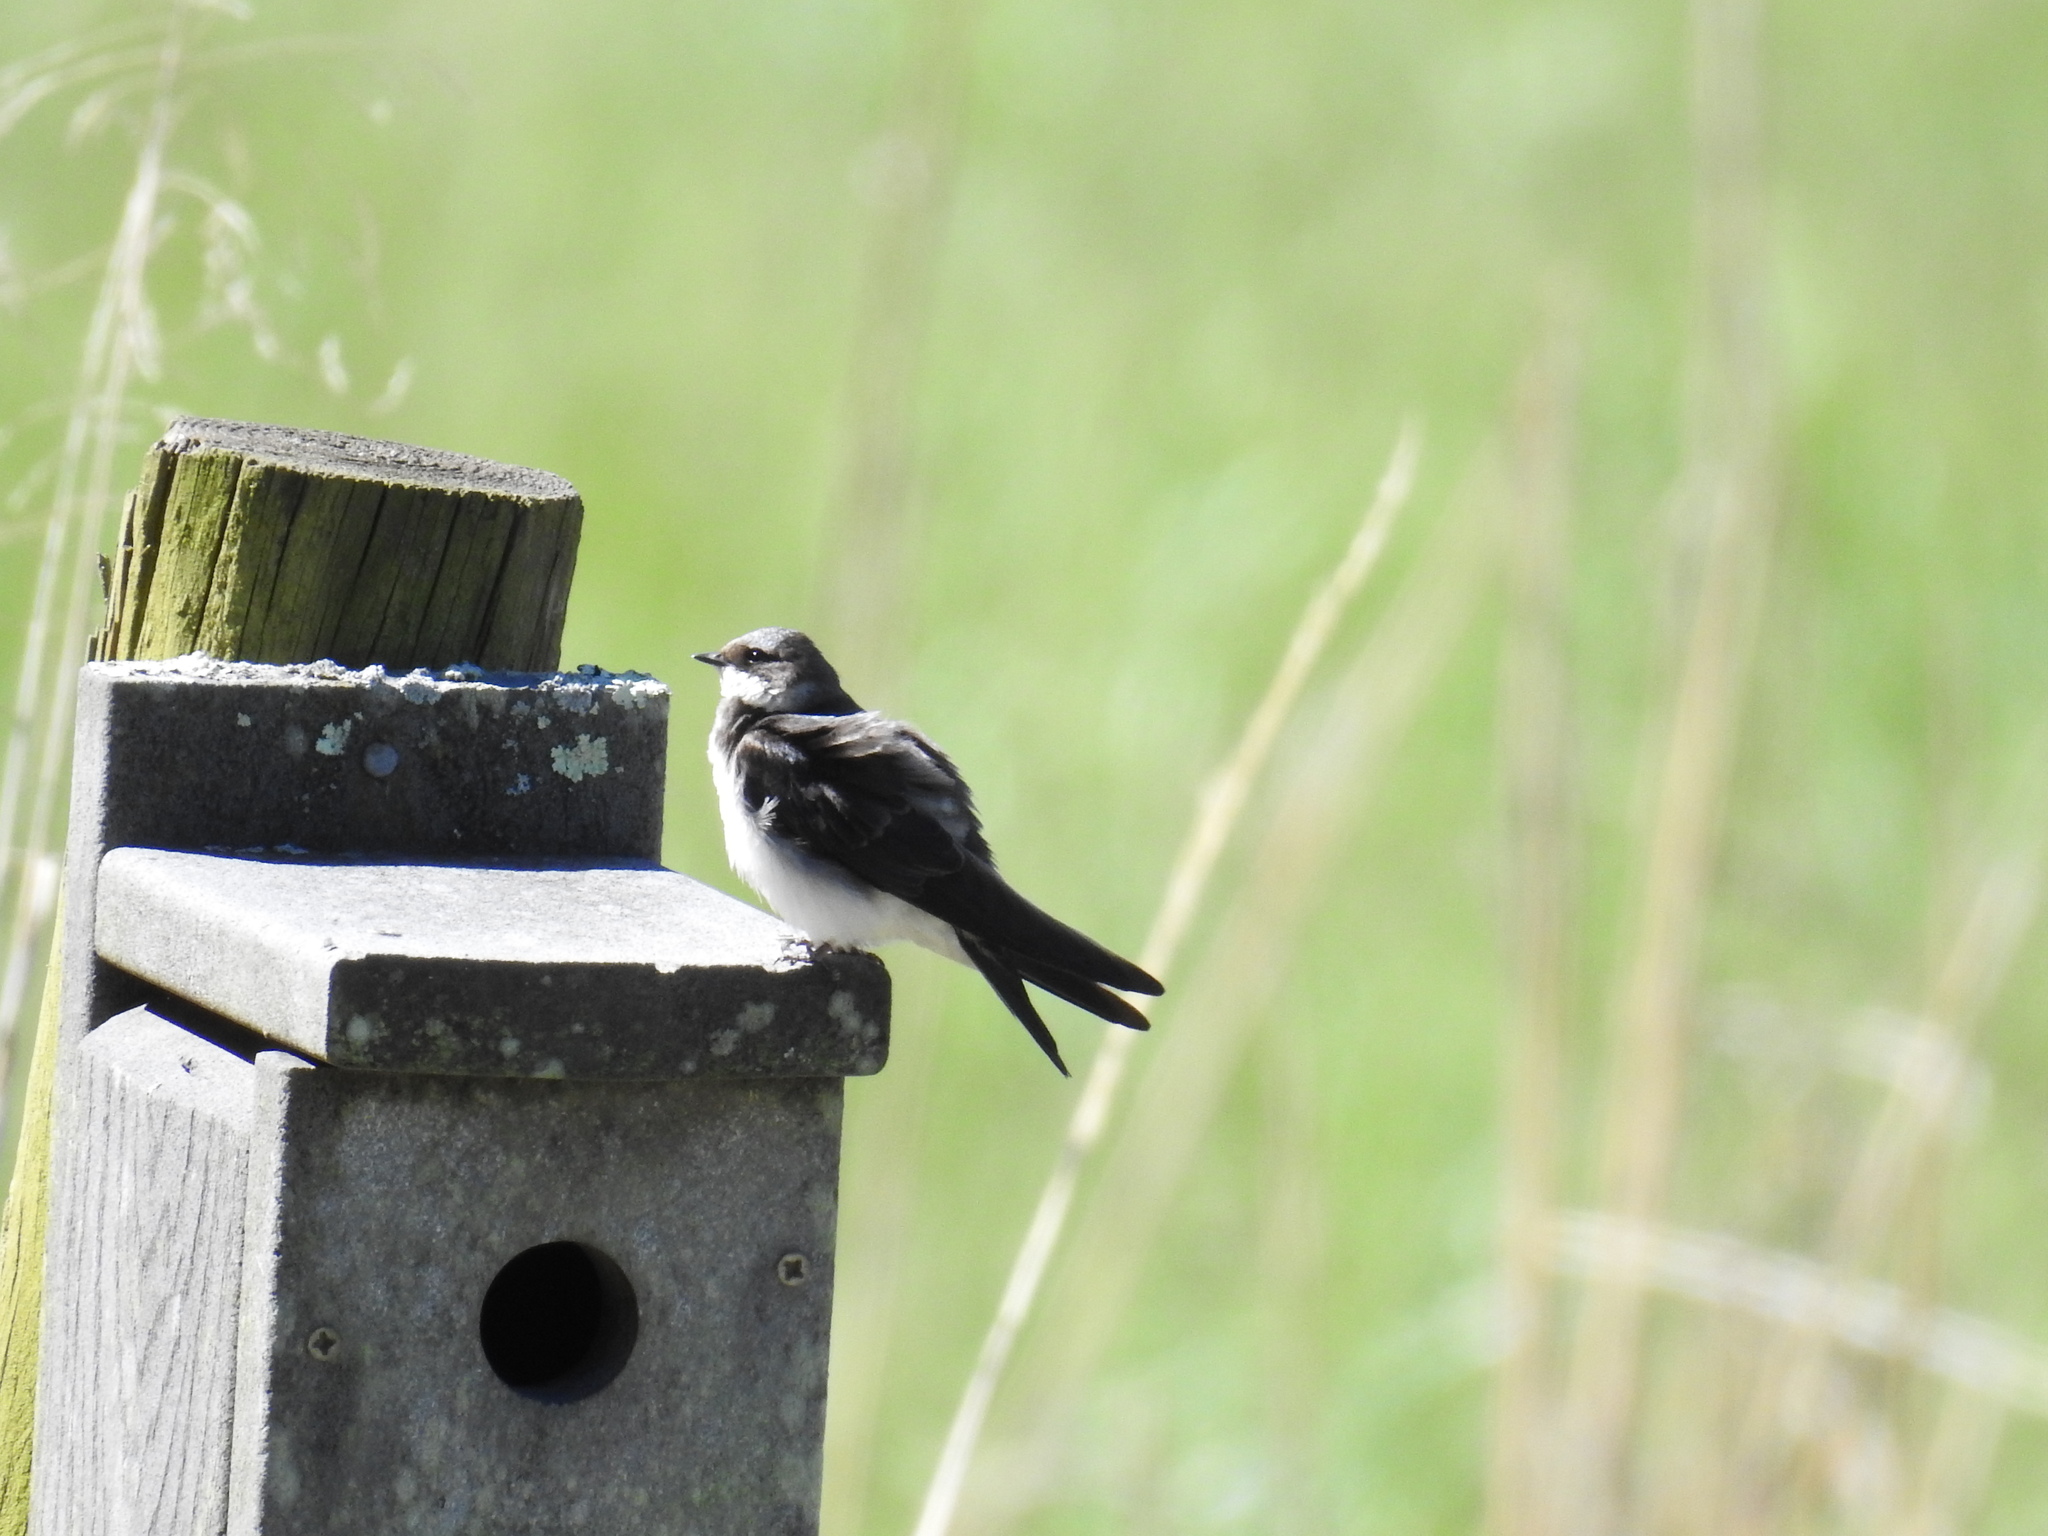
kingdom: Animalia
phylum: Chordata
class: Aves
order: Passeriformes
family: Hirundinidae
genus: Tachycineta
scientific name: Tachycineta bicolor
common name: Tree swallow
